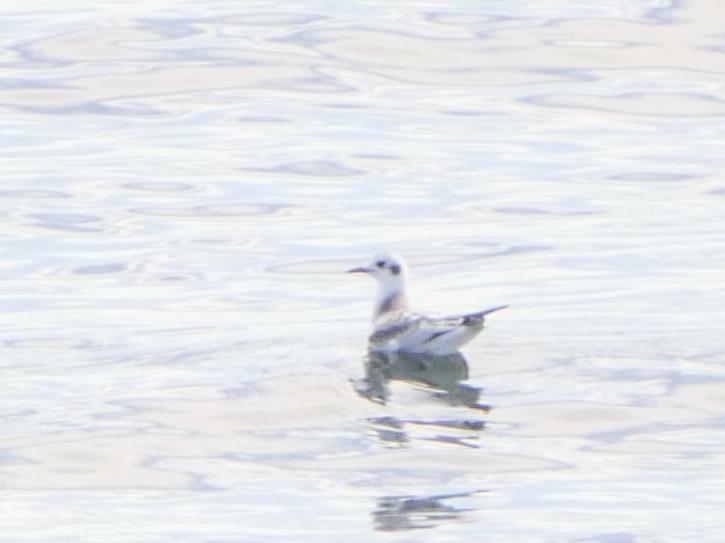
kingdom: Animalia
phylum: Chordata
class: Aves
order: Charadriiformes
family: Laridae
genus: Chroicocephalus
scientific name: Chroicocephalus philadelphia
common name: Bonaparte's gull
